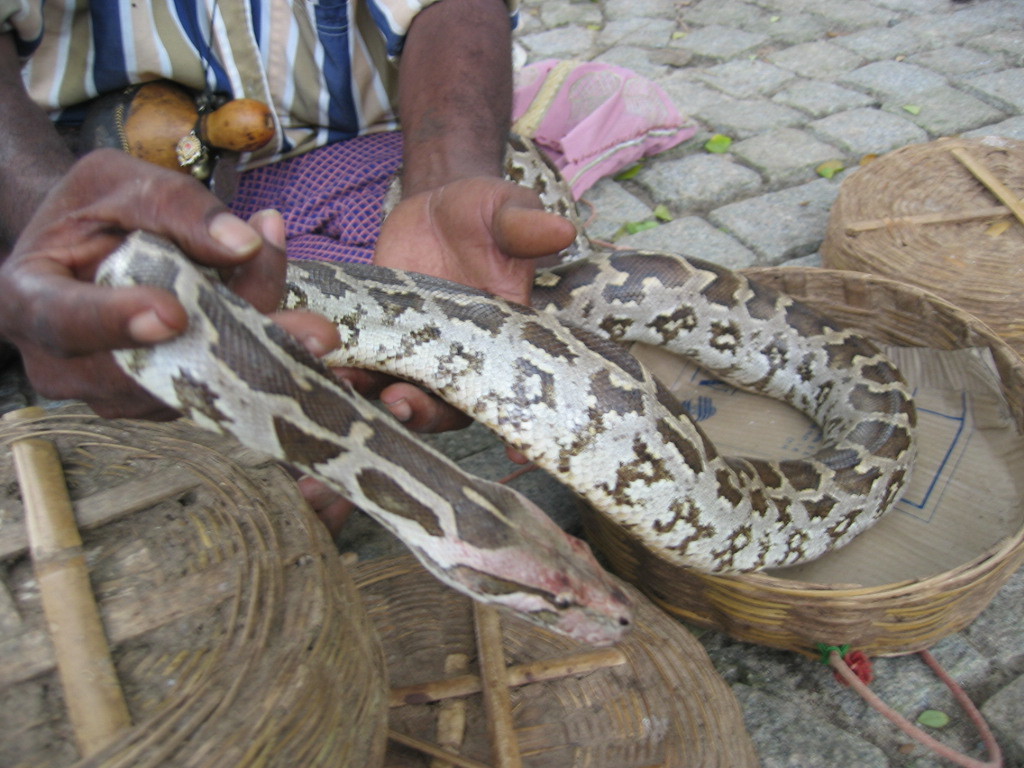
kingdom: Animalia
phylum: Chordata
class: Squamata
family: Pythonidae
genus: Python
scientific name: Python molurus
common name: Indian rock python
